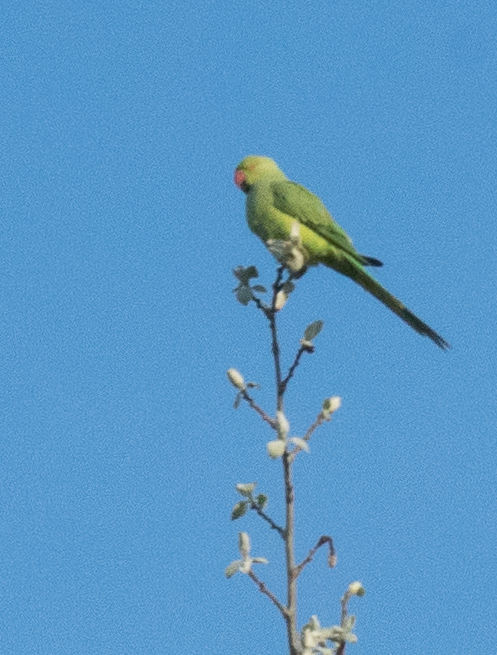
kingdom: Animalia
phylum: Chordata
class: Aves
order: Psittaciformes
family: Psittacidae
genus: Psittacula
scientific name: Psittacula krameri
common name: Rose-ringed parakeet
